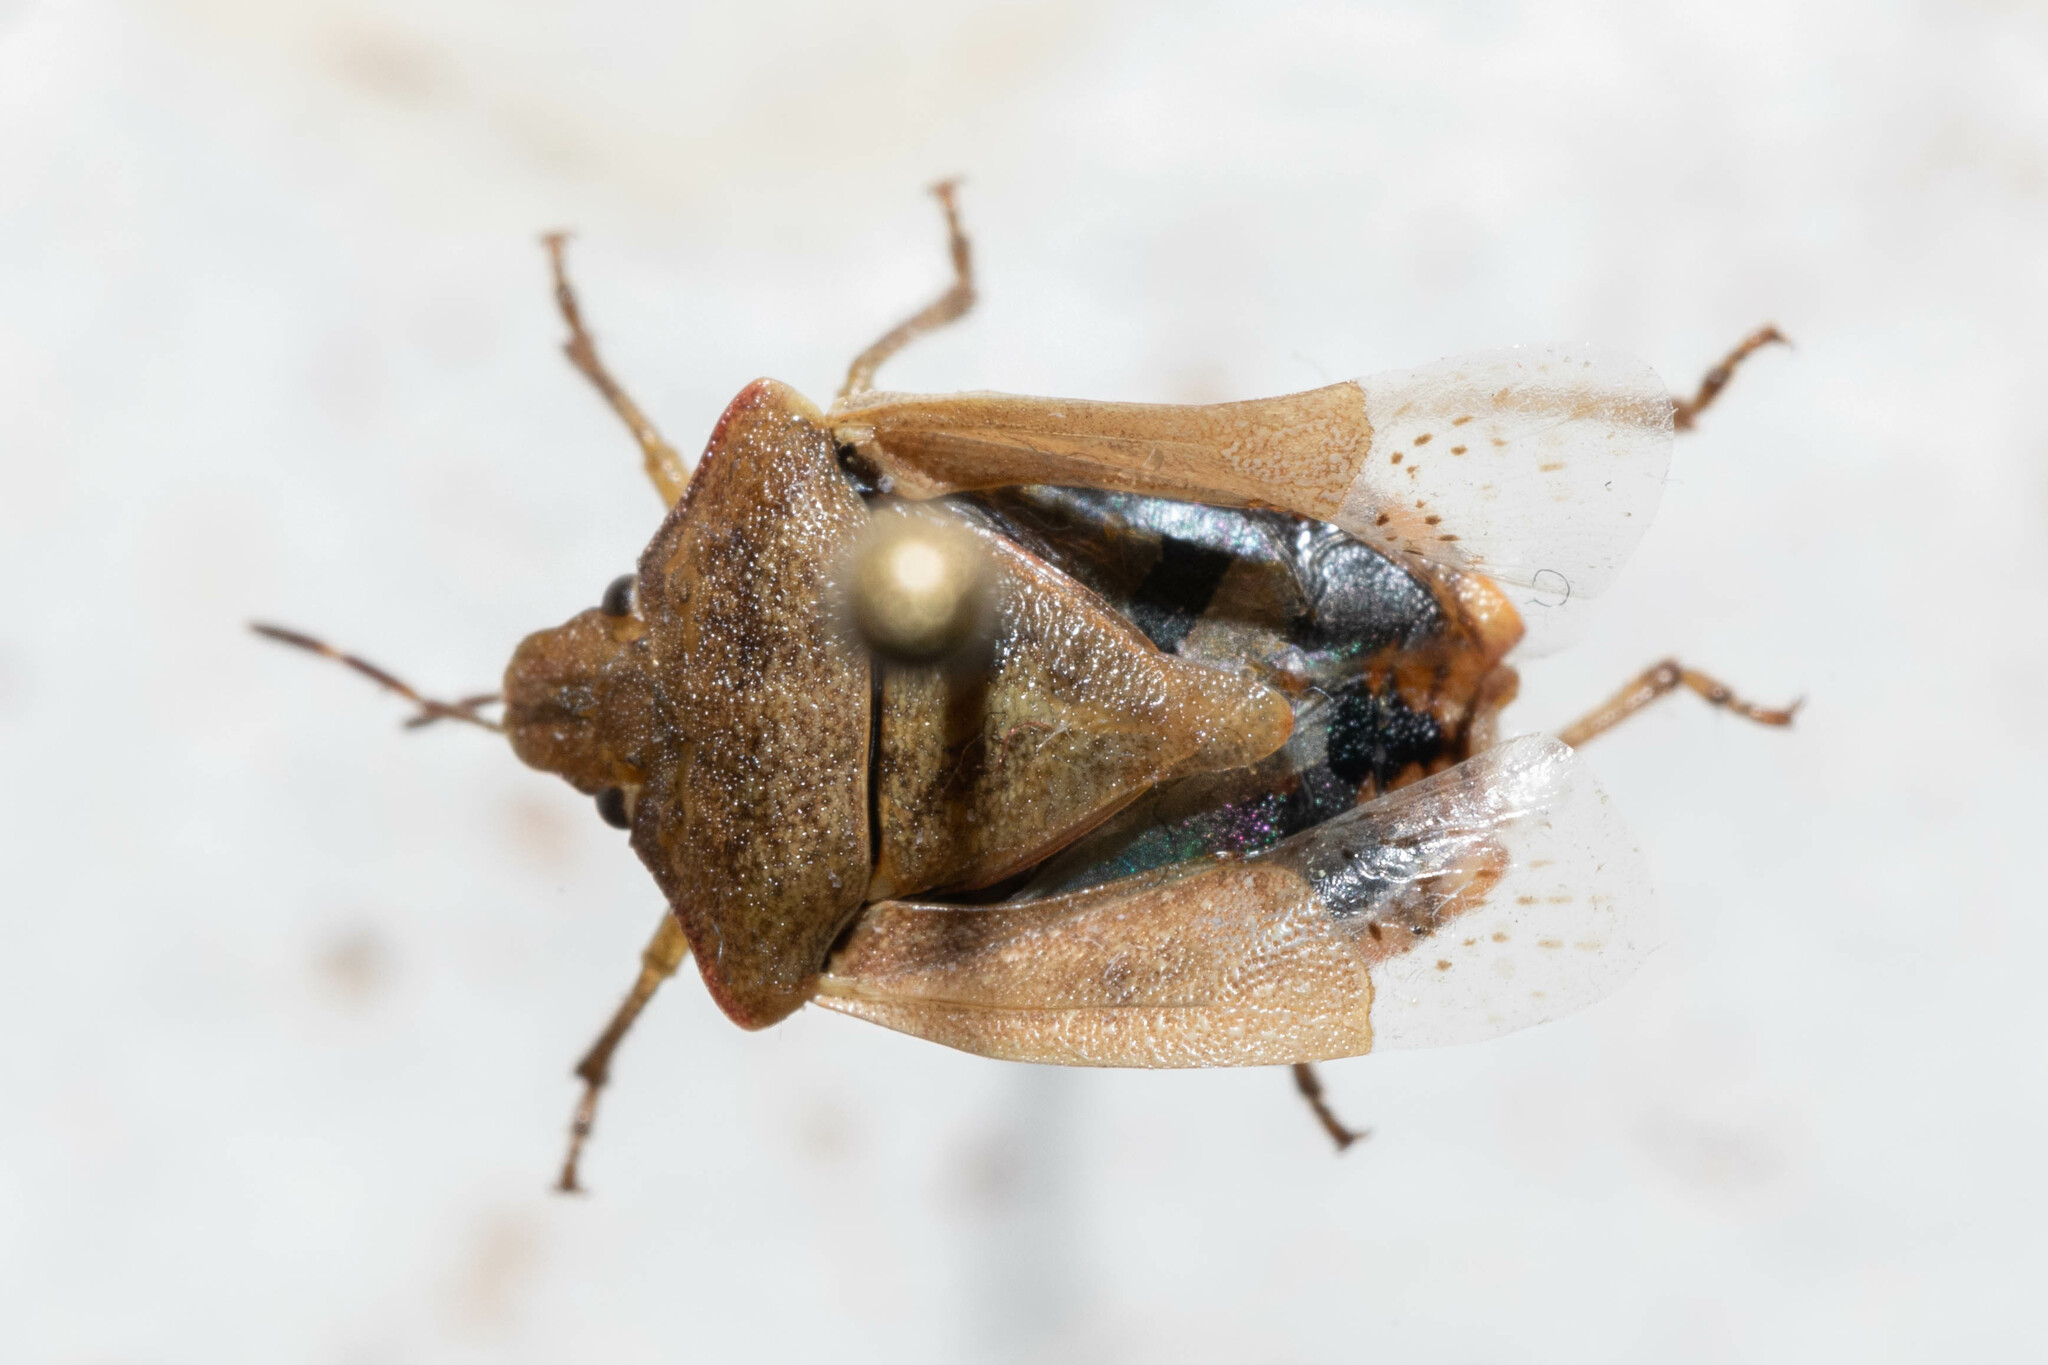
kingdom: Animalia
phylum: Arthropoda
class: Insecta
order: Hemiptera
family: Pentatomidae
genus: Thyanta
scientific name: Thyanta pallidovirens
